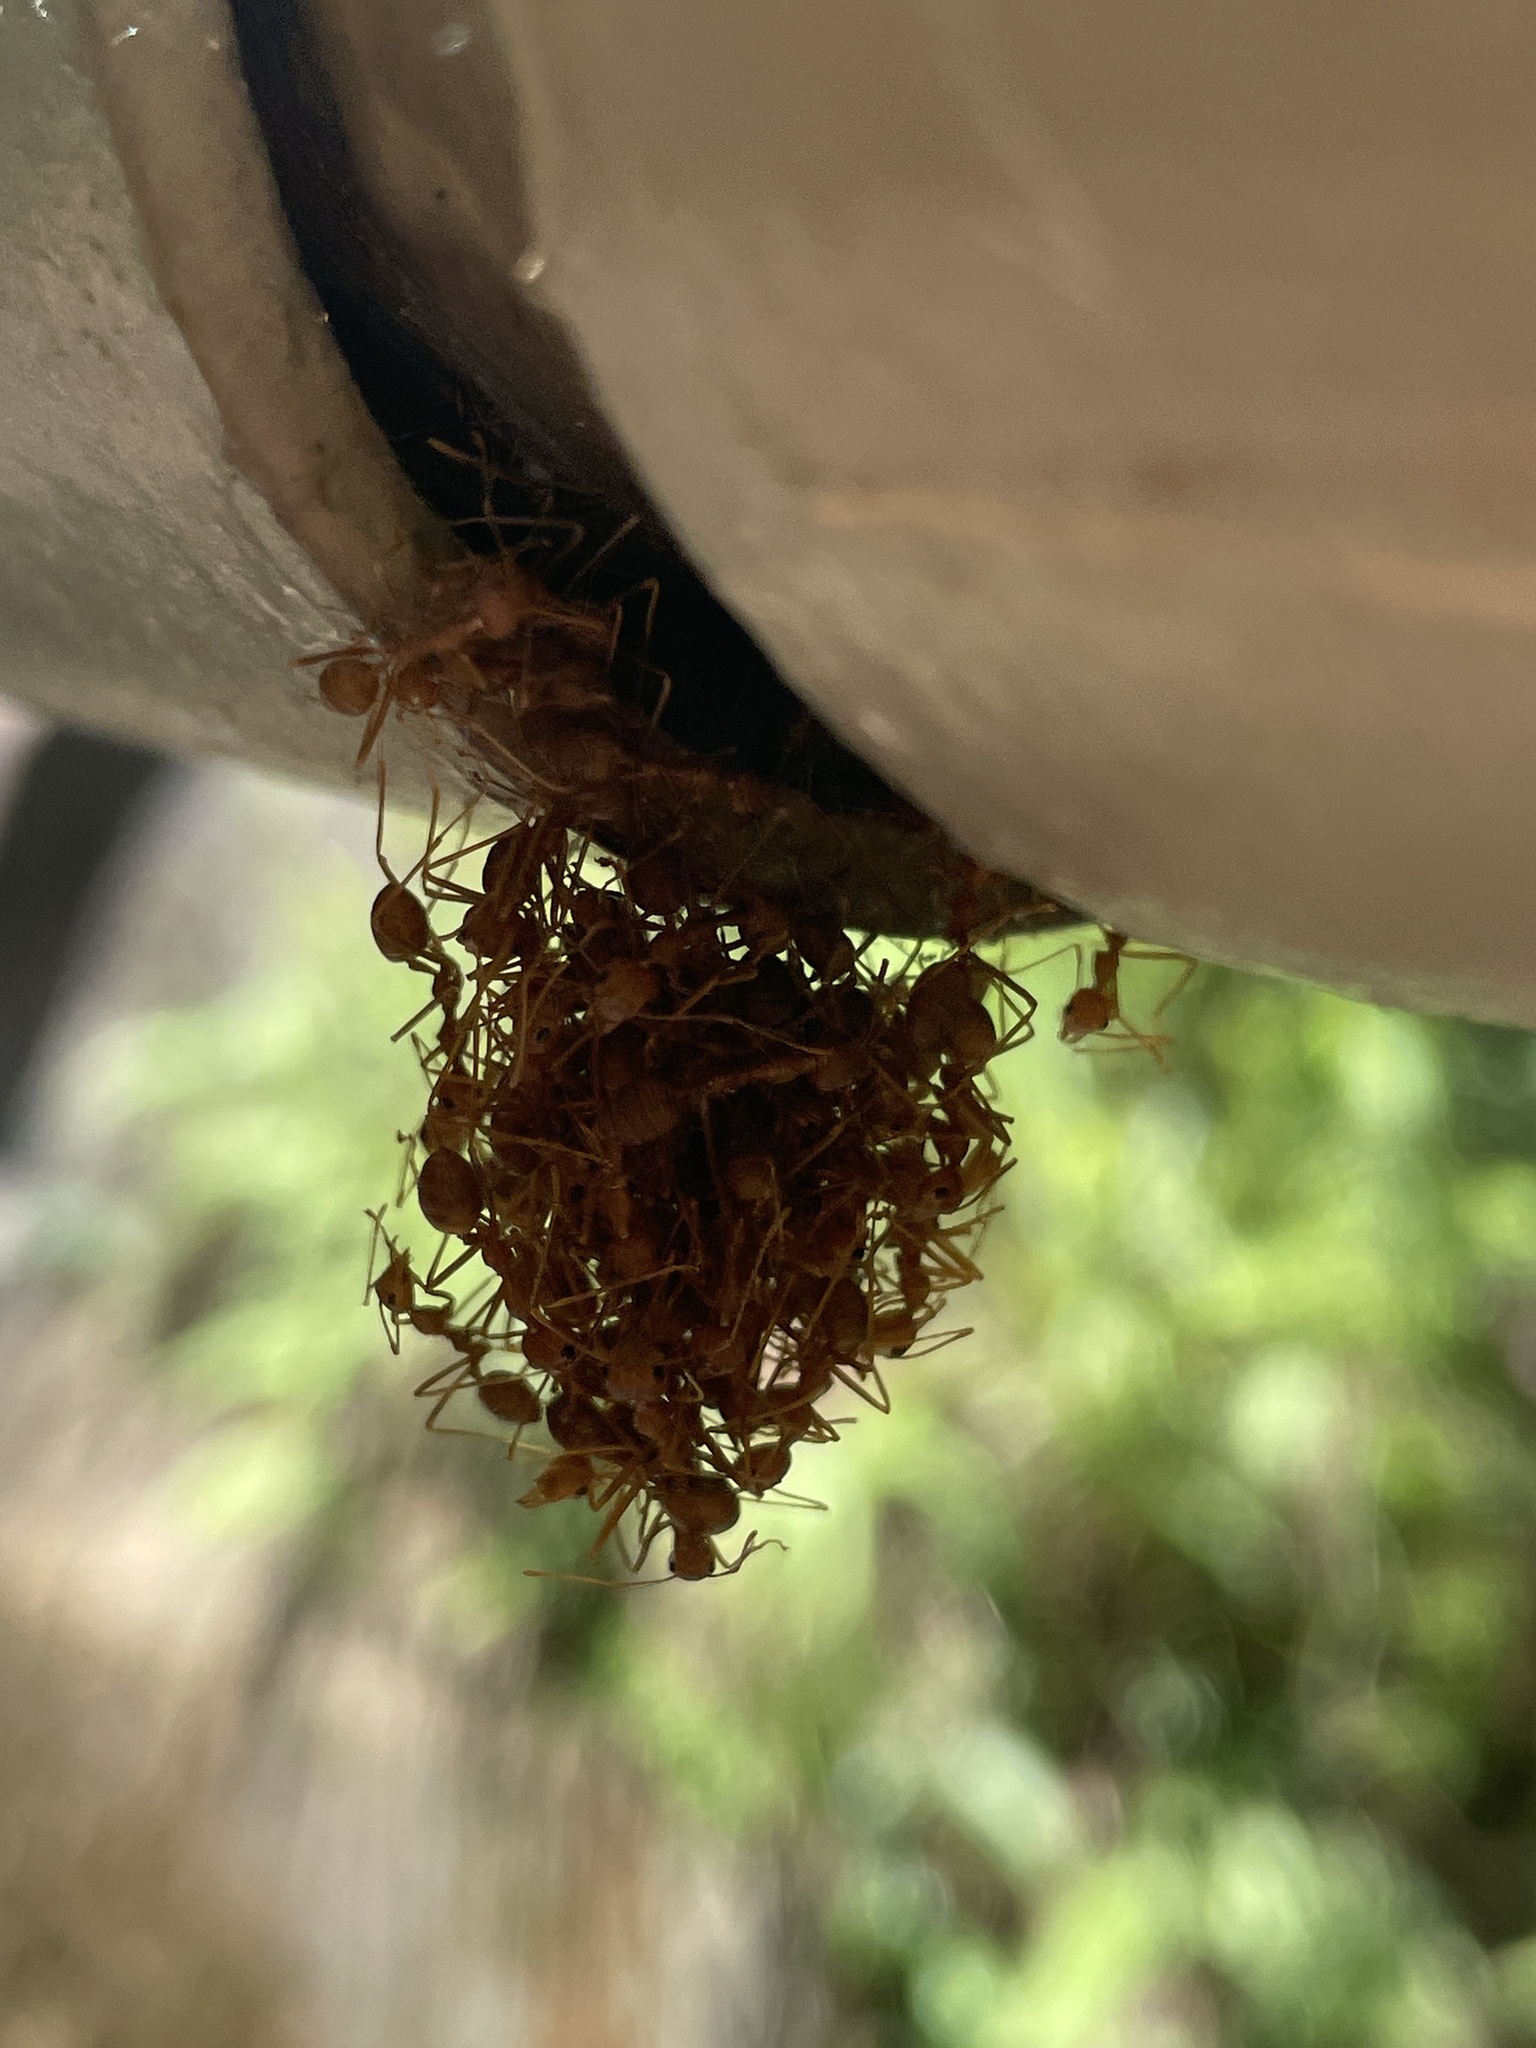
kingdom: Animalia
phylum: Arthropoda
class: Insecta
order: Hymenoptera
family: Formicidae
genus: Oecophylla
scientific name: Oecophylla smaragdina
